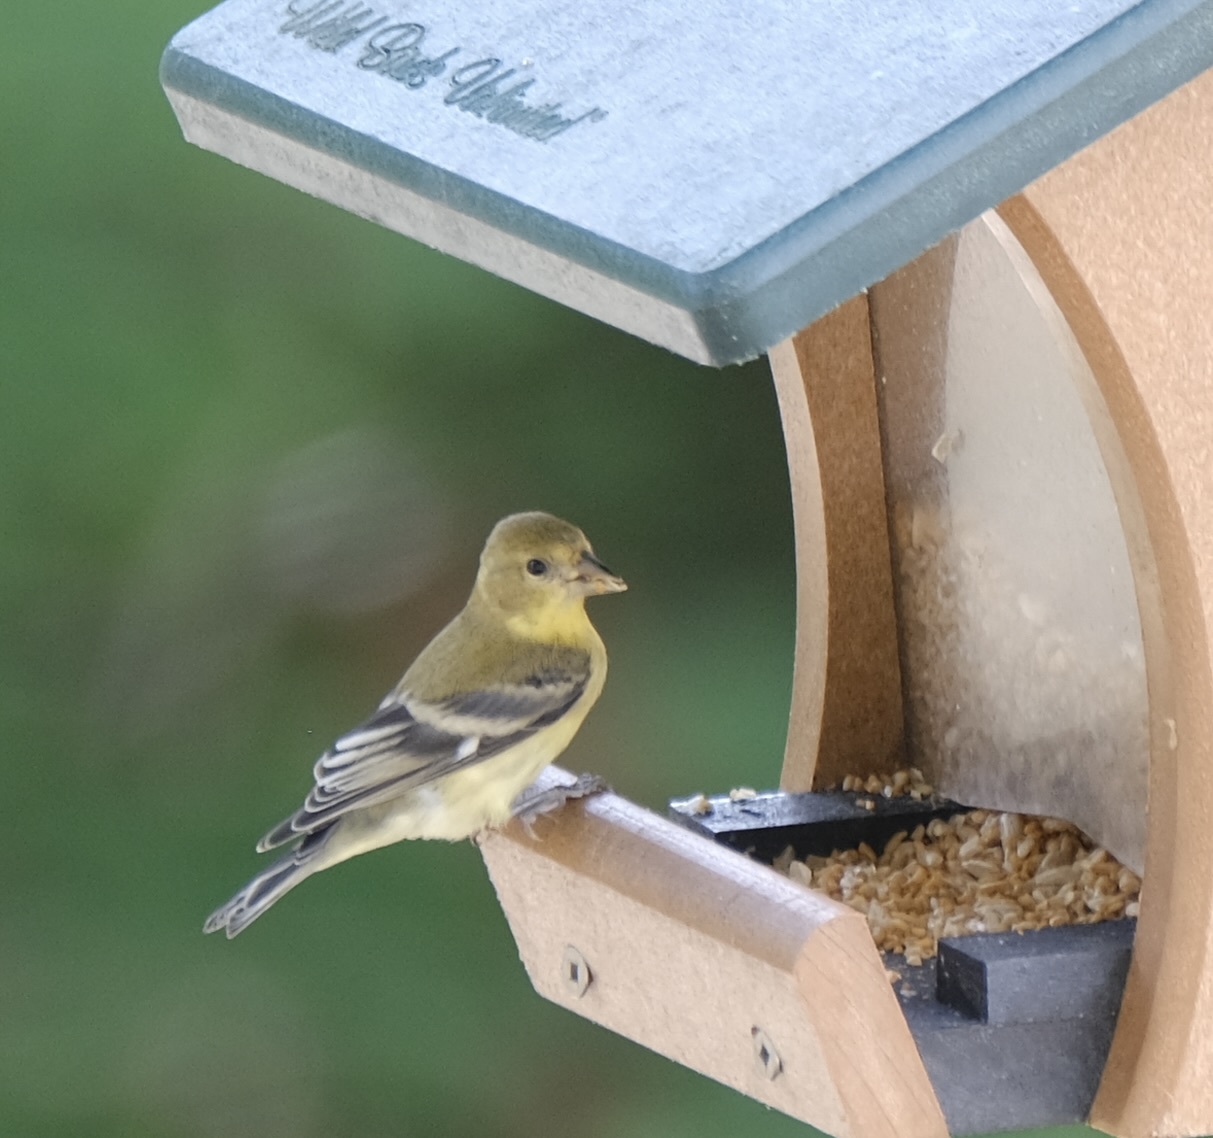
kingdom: Animalia
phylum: Chordata
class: Aves
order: Passeriformes
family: Fringillidae
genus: Spinus
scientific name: Spinus psaltria
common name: Lesser goldfinch
